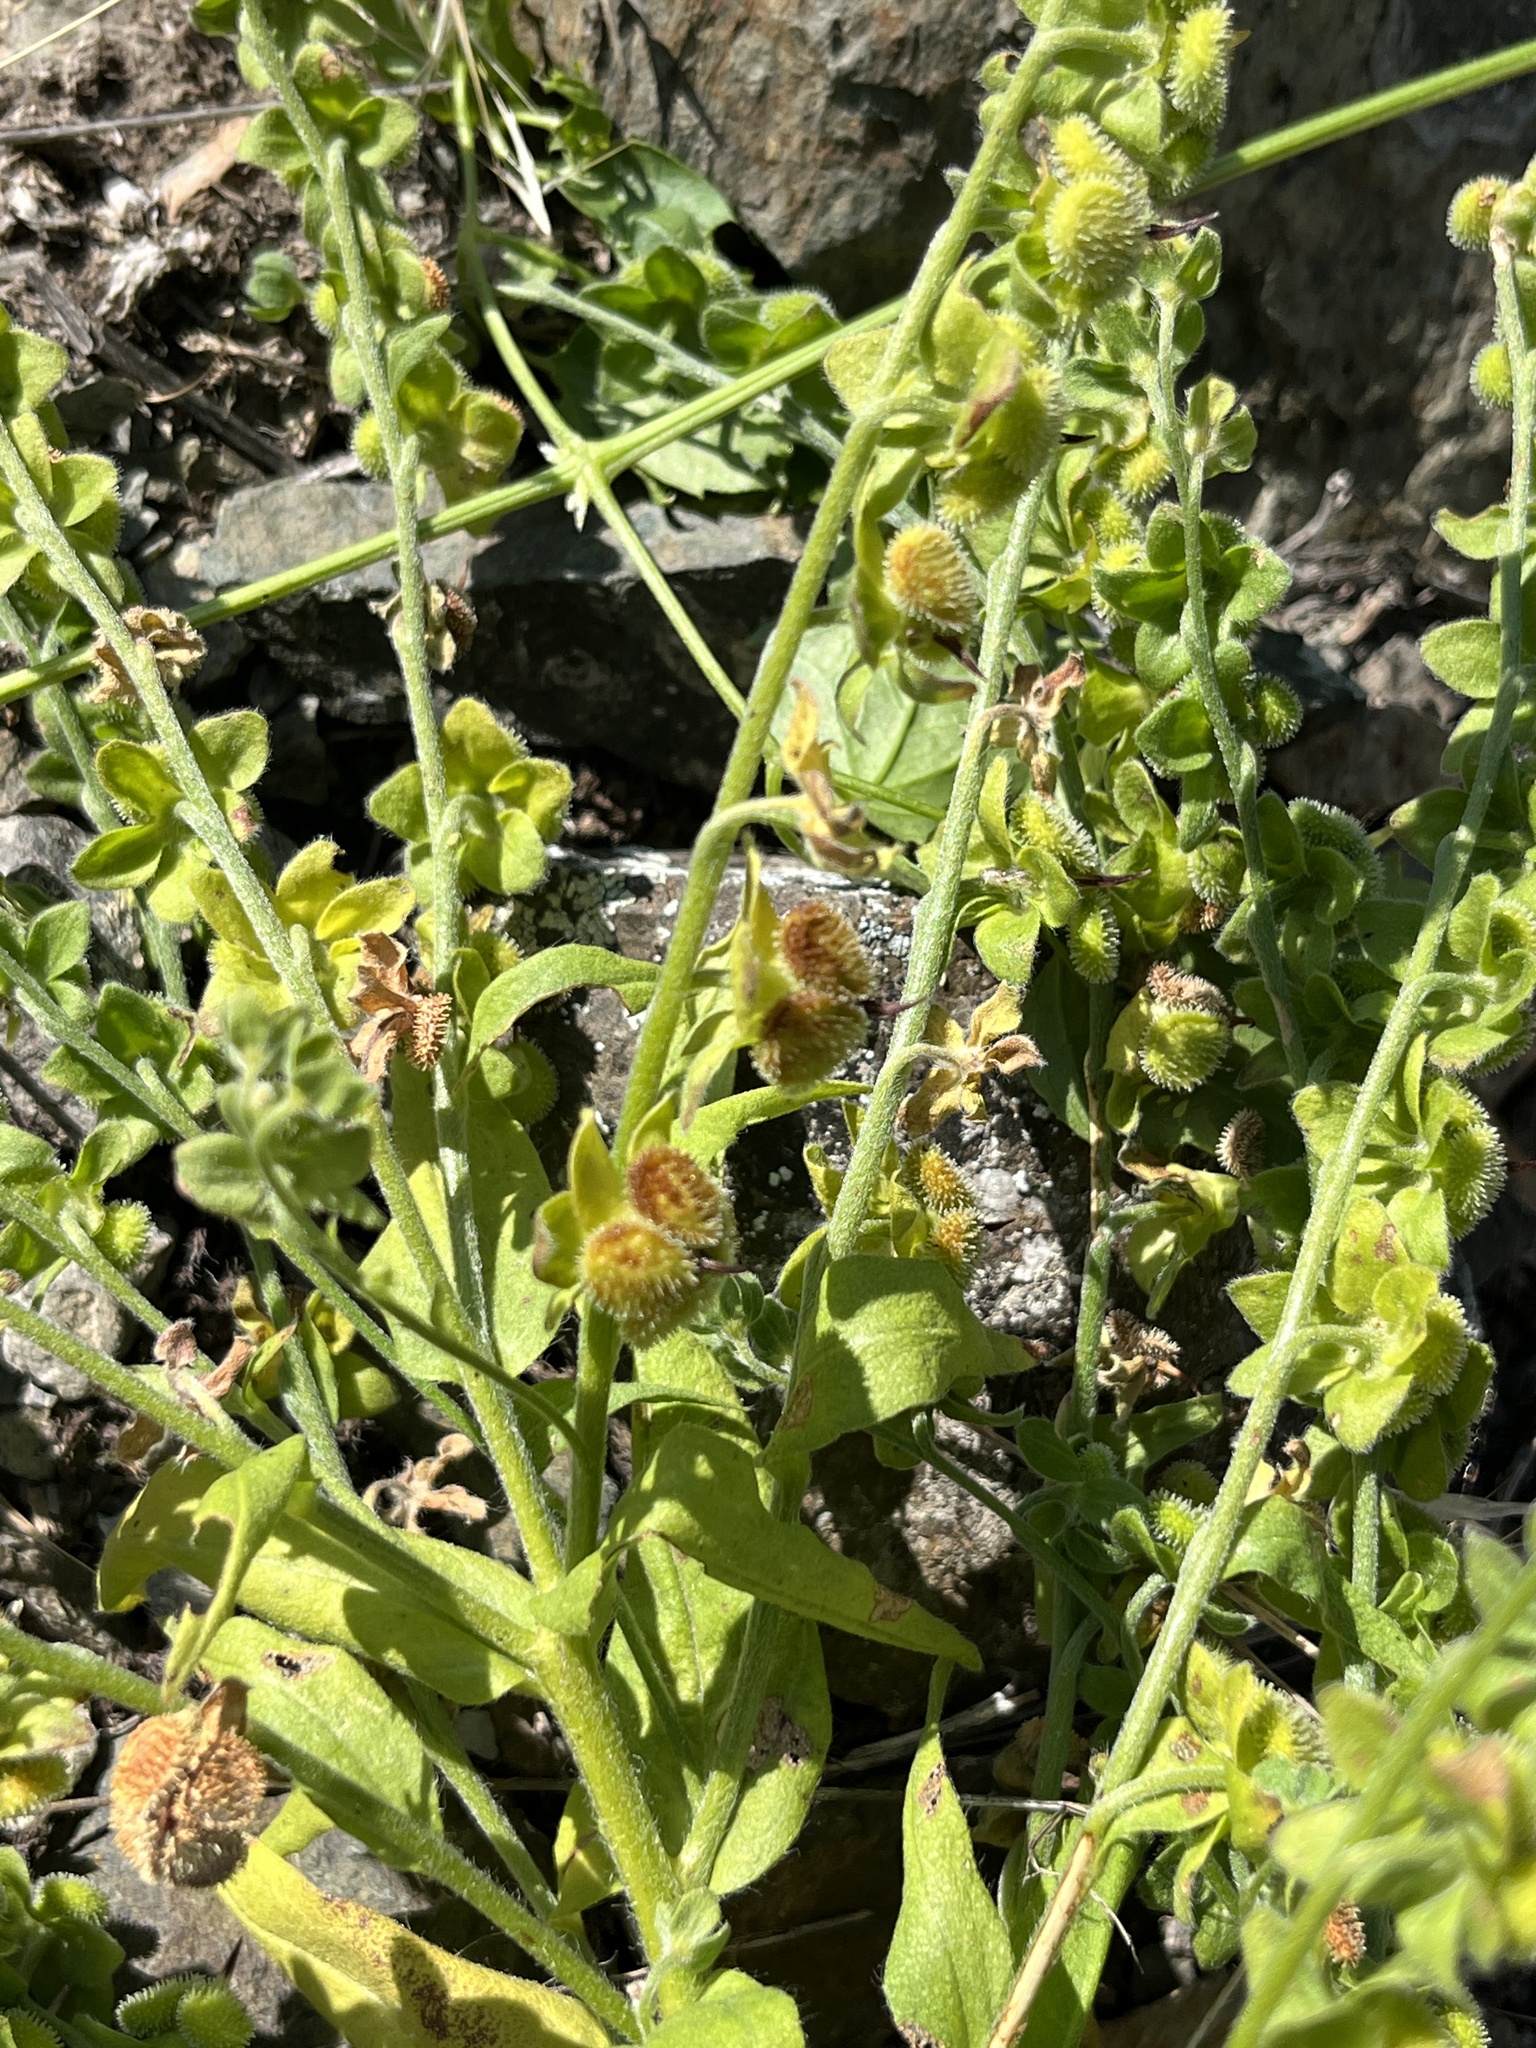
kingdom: Plantae
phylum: Tracheophyta
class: Magnoliopsida
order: Boraginales
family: Boraginaceae
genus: Cynoglossum
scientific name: Cynoglossum officinale
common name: Hound's-tongue
